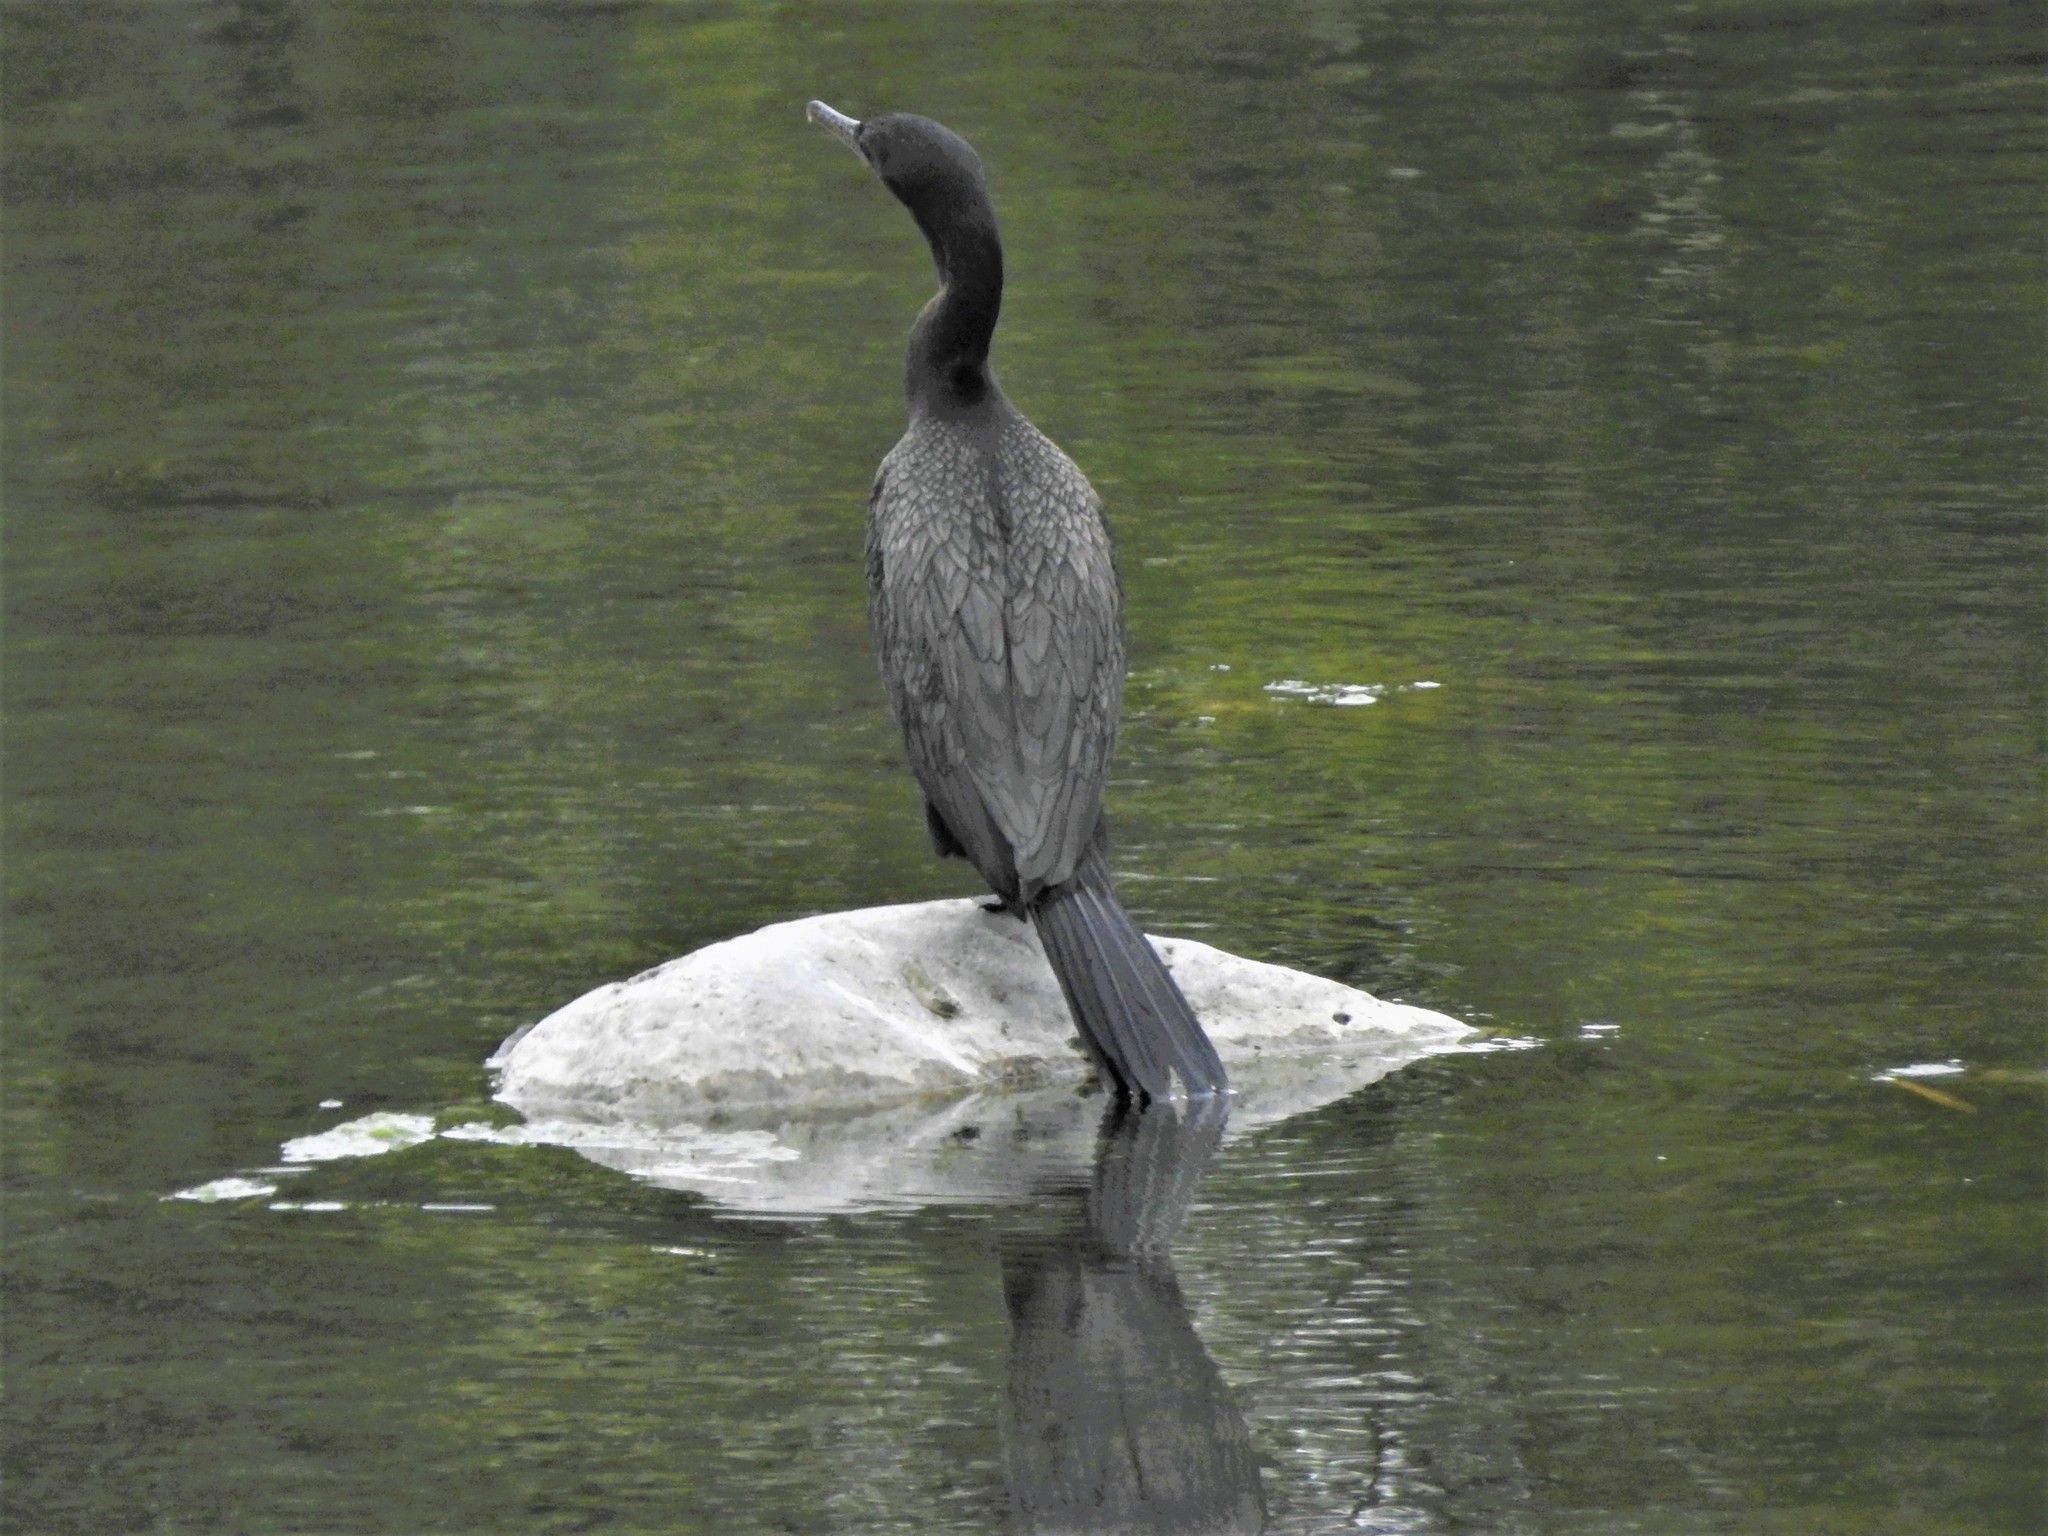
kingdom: Animalia
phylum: Chordata
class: Aves
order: Suliformes
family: Phalacrocoracidae
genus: Phalacrocorax
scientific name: Phalacrocorax brasilianus
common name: Neotropic cormorant
